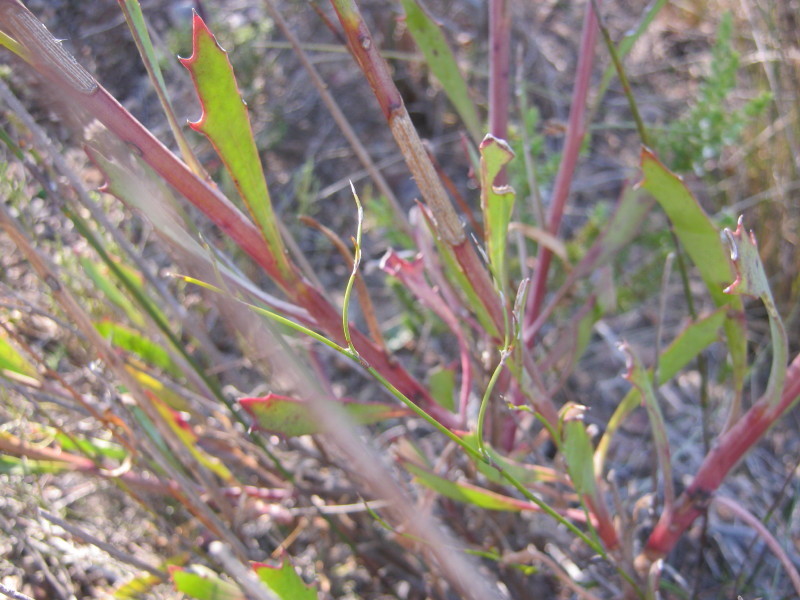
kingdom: Plantae
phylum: Tracheophyta
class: Magnoliopsida
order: Asterales
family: Asteraceae
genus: Othonna
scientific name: Othonna quinquedentata
